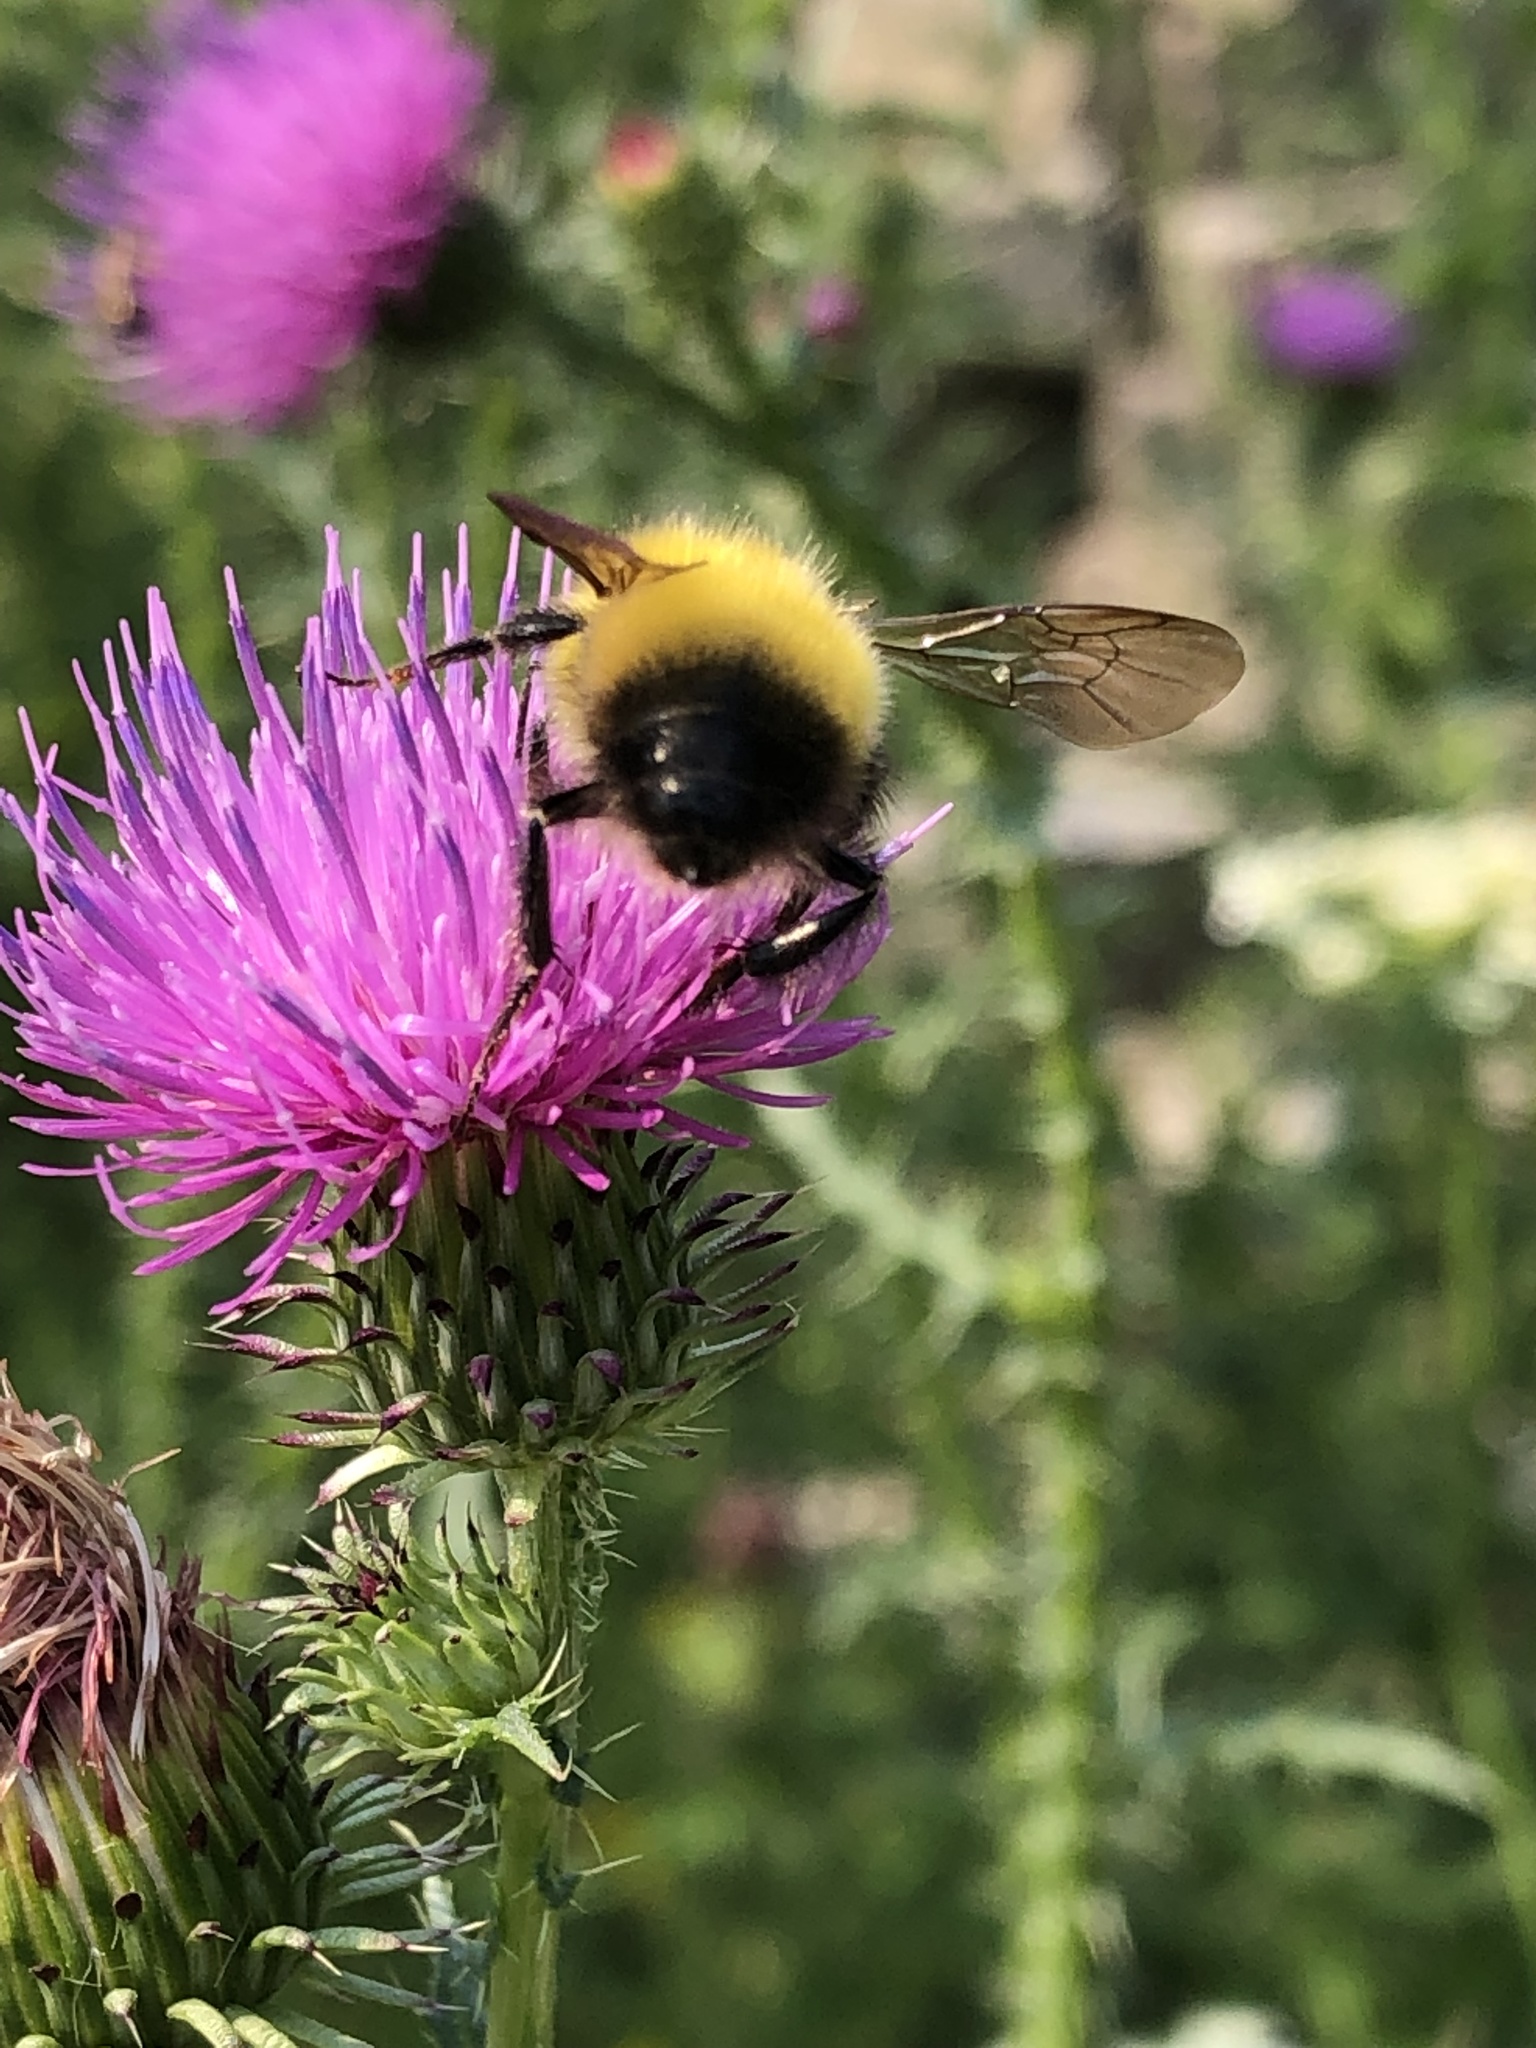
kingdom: Animalia
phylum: Arthropoda
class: Insecta
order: Hymenoptera
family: Apidae
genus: Bombus
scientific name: Bombus perplexus
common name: Confusing bumble bee
